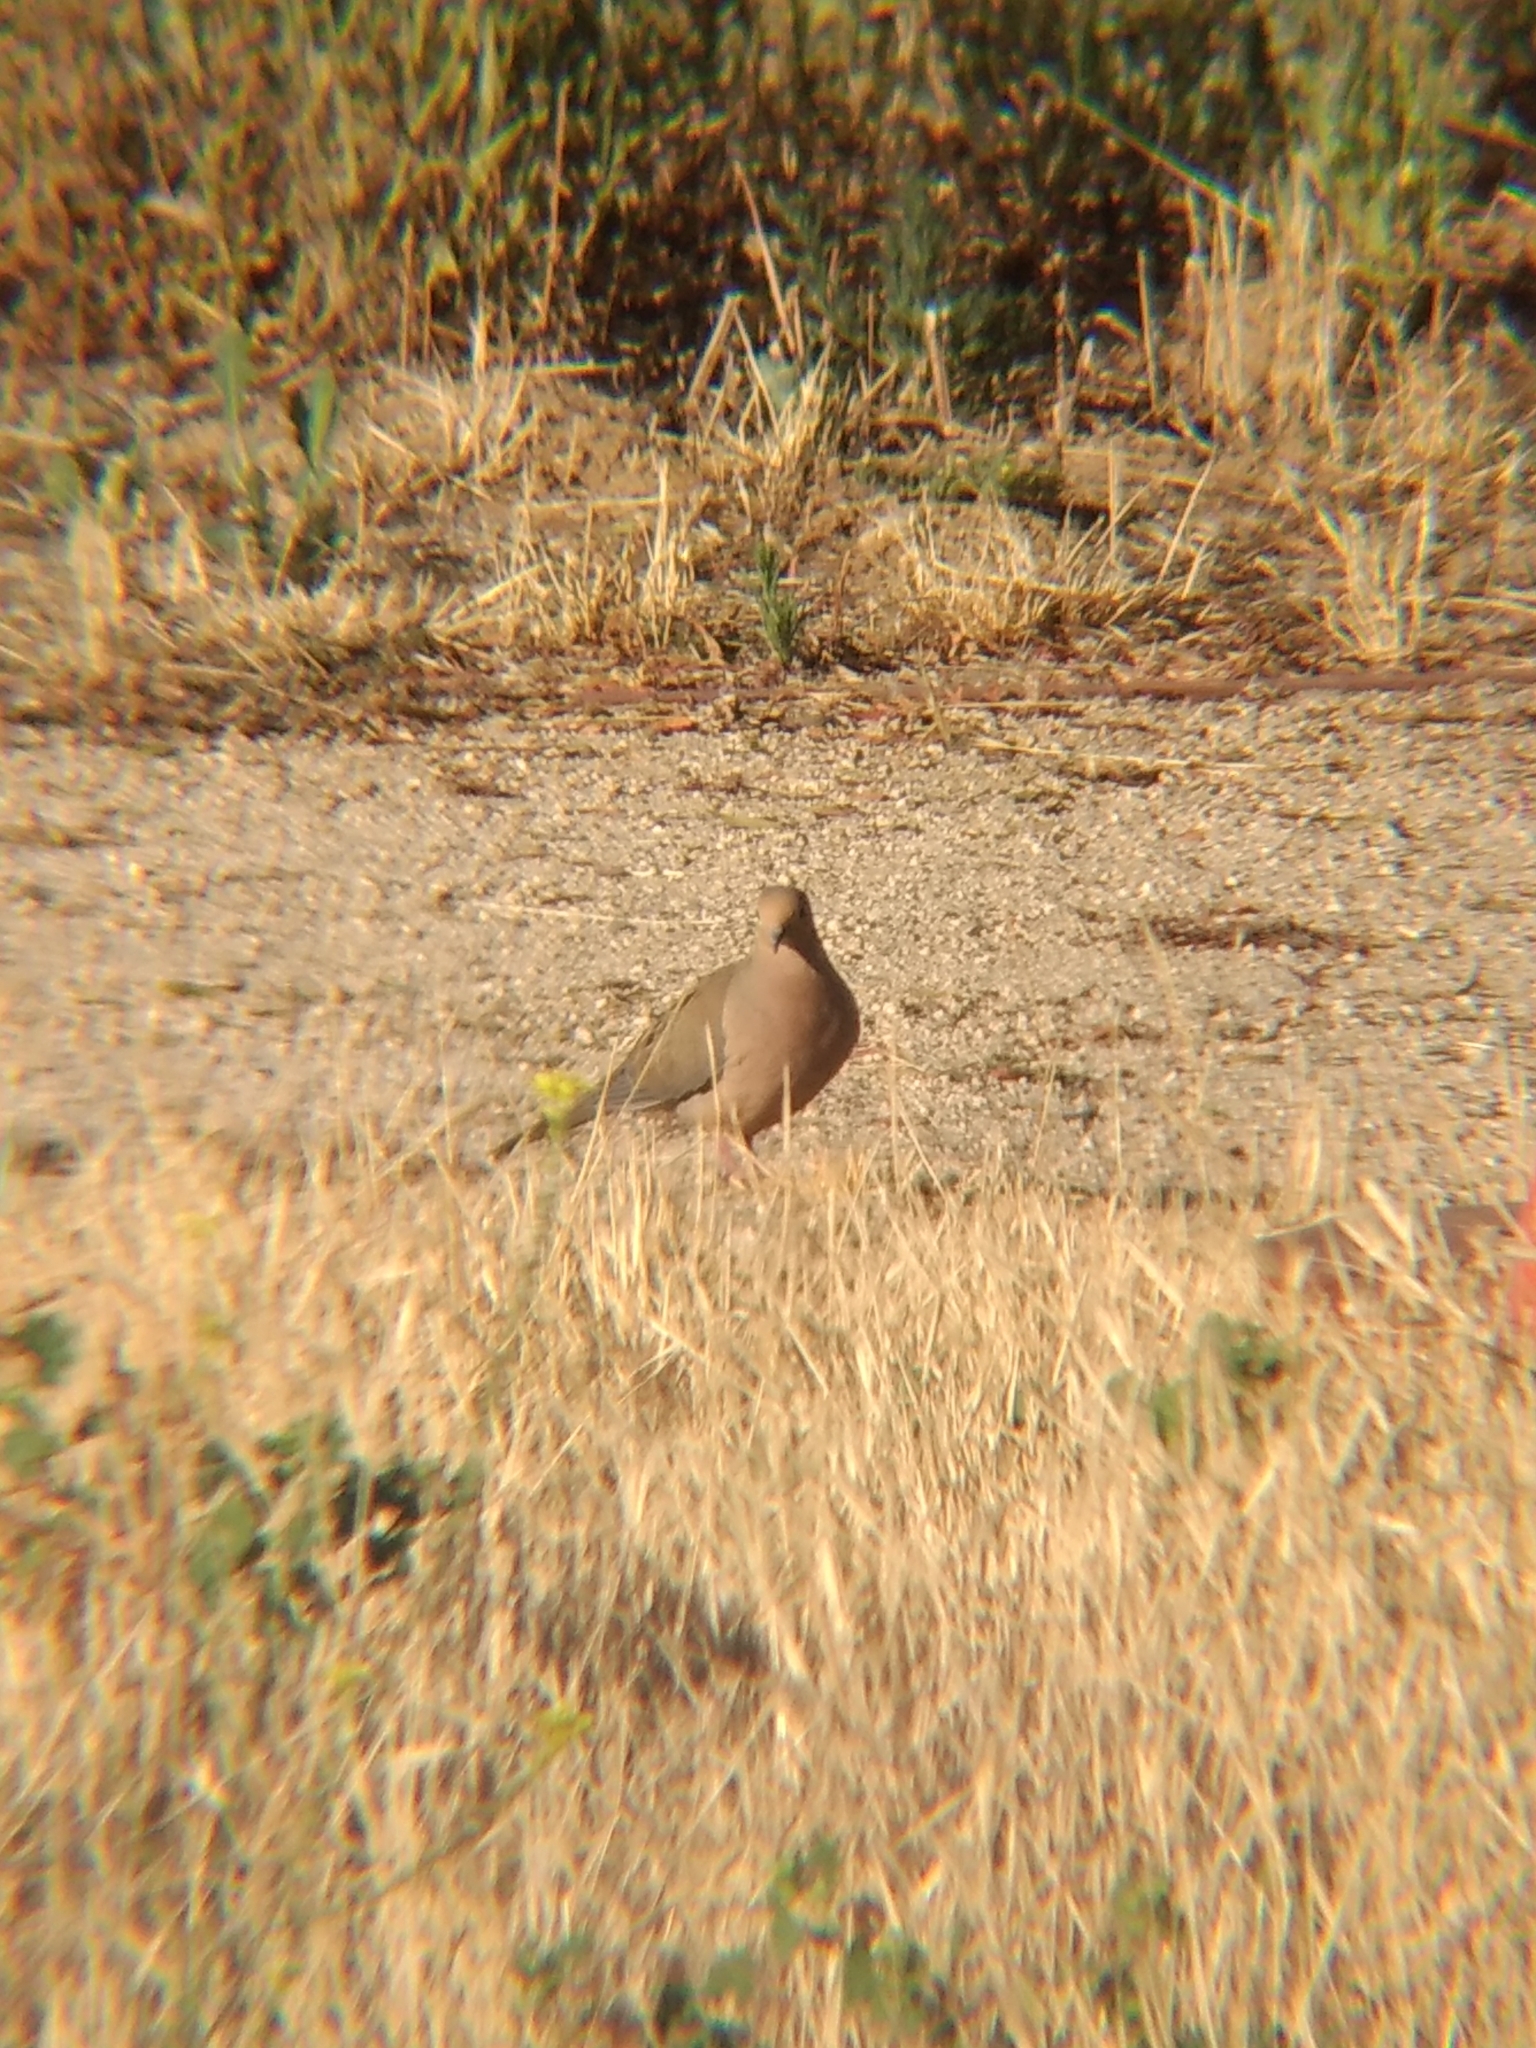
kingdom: Animalia
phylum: Chordata
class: Aves
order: Columbiformes
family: Columbidae
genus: Zenaida
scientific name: Zenaida macroura
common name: Mourning dove
